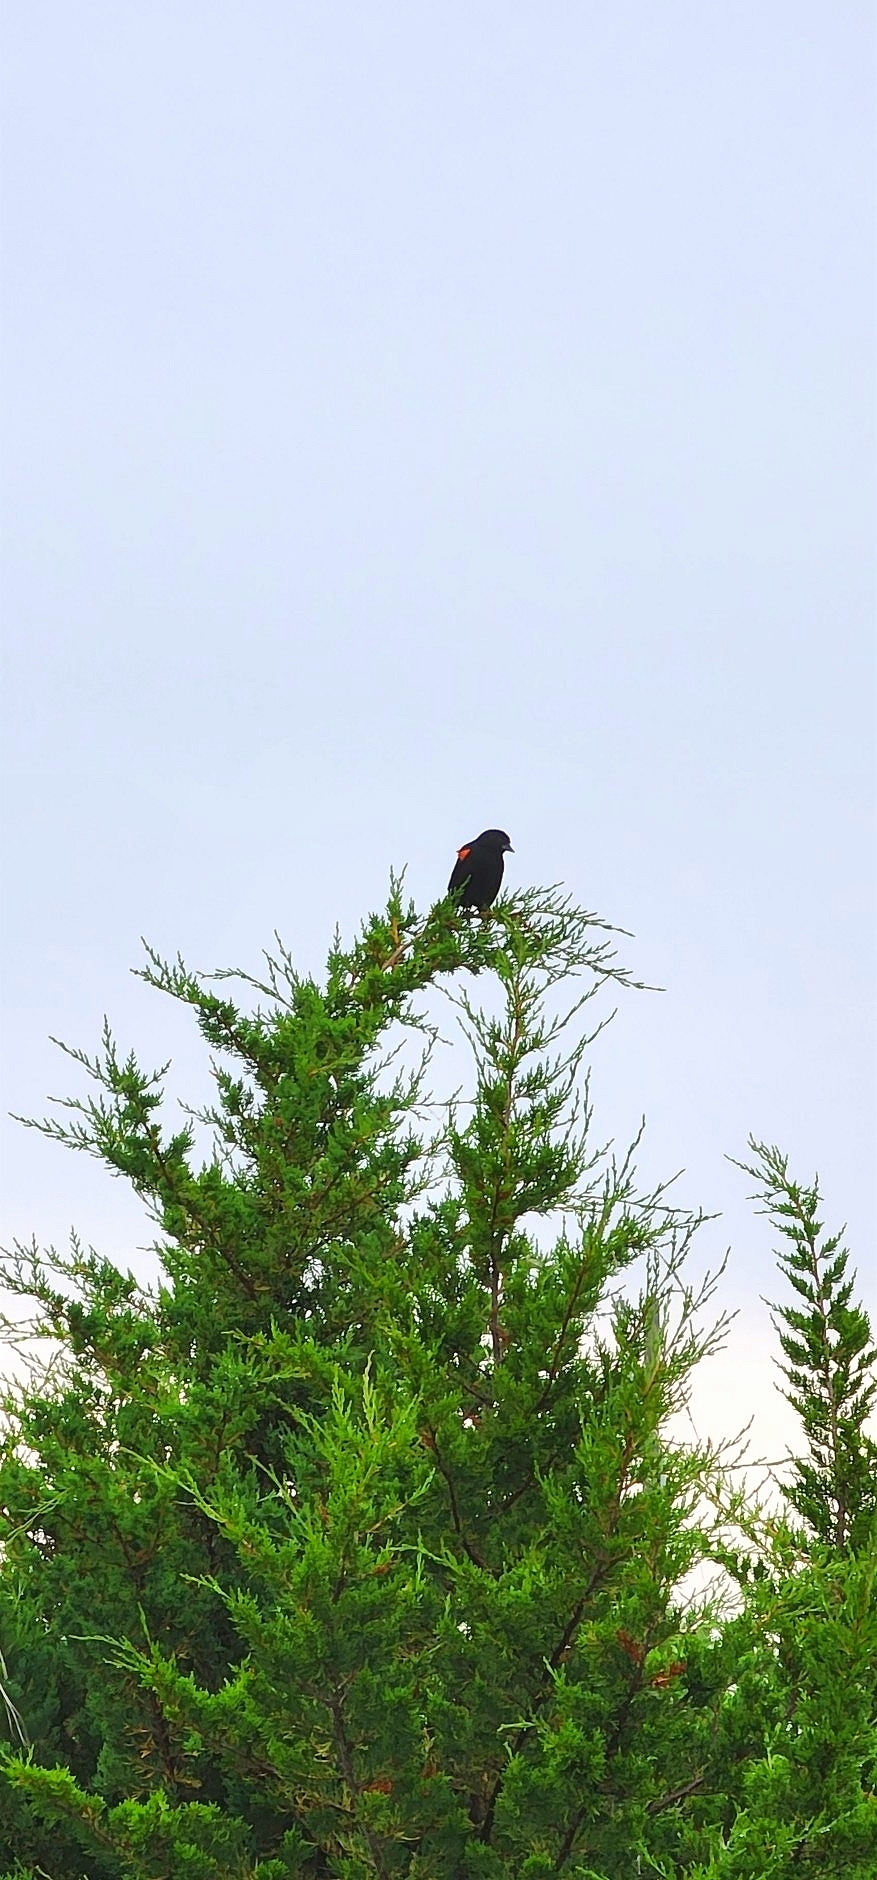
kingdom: Animalia
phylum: Chordata
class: Aves
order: Passeriformes
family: Icteridae
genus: Agelaius
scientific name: Agelaius phoeniceus
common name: Red-winged blackbird
